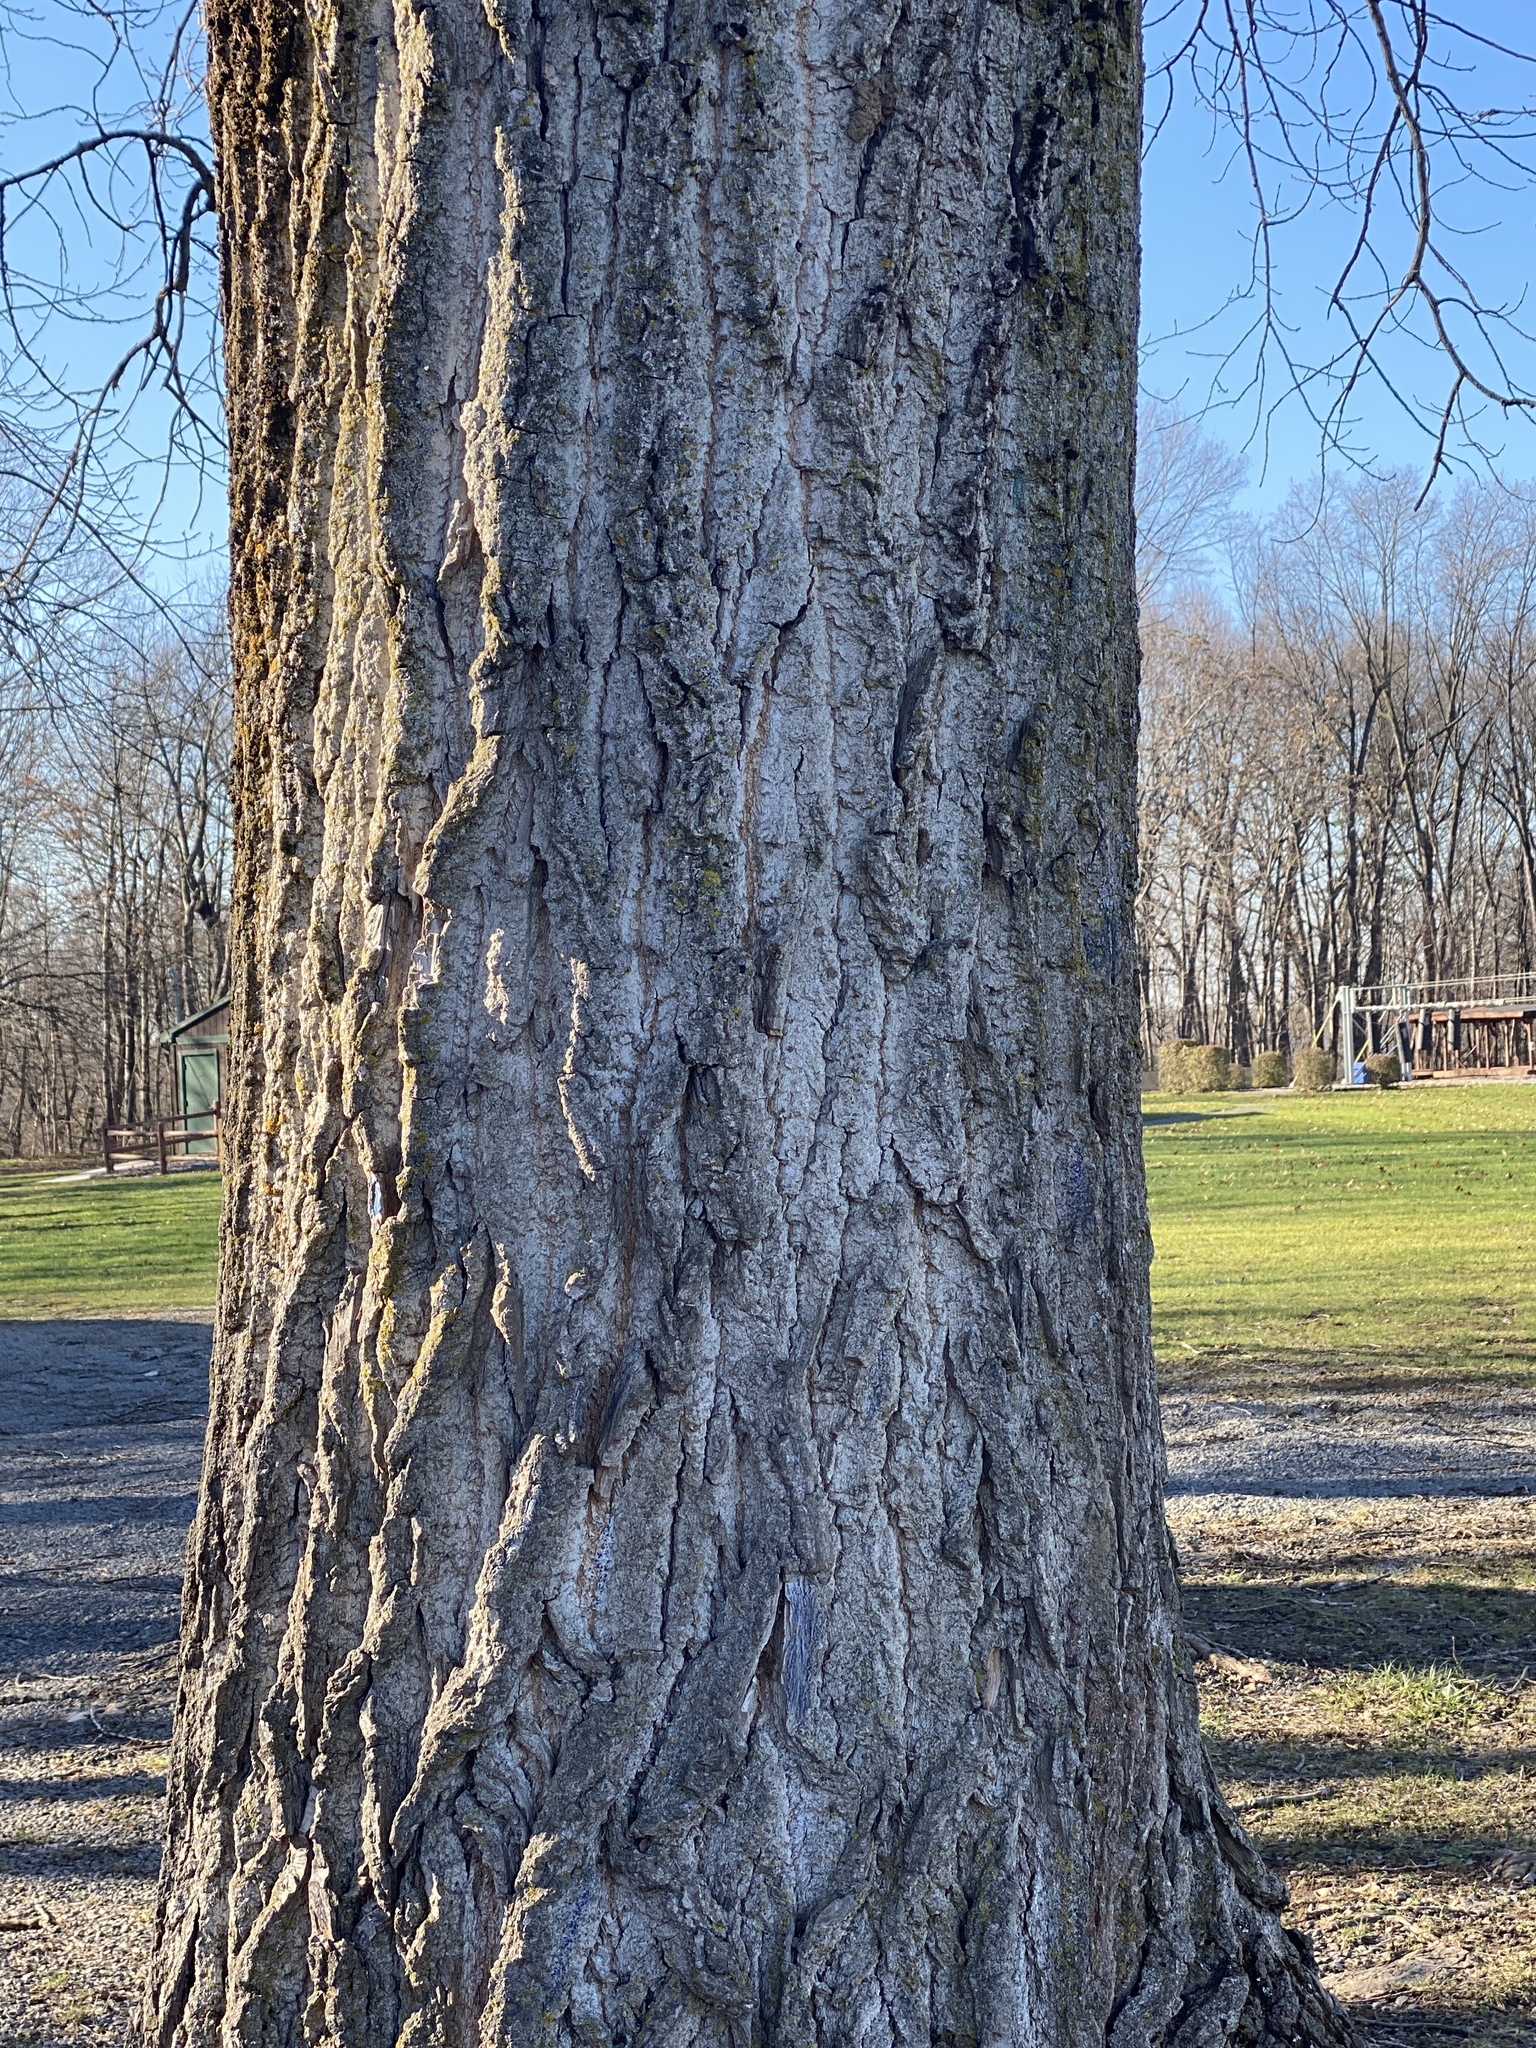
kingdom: Plantae
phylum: Tracheophyta
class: Magnoliopsida
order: Malpighiales
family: Salicaceae
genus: Populus
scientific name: Populus deltoides
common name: Eastern cottonwood
